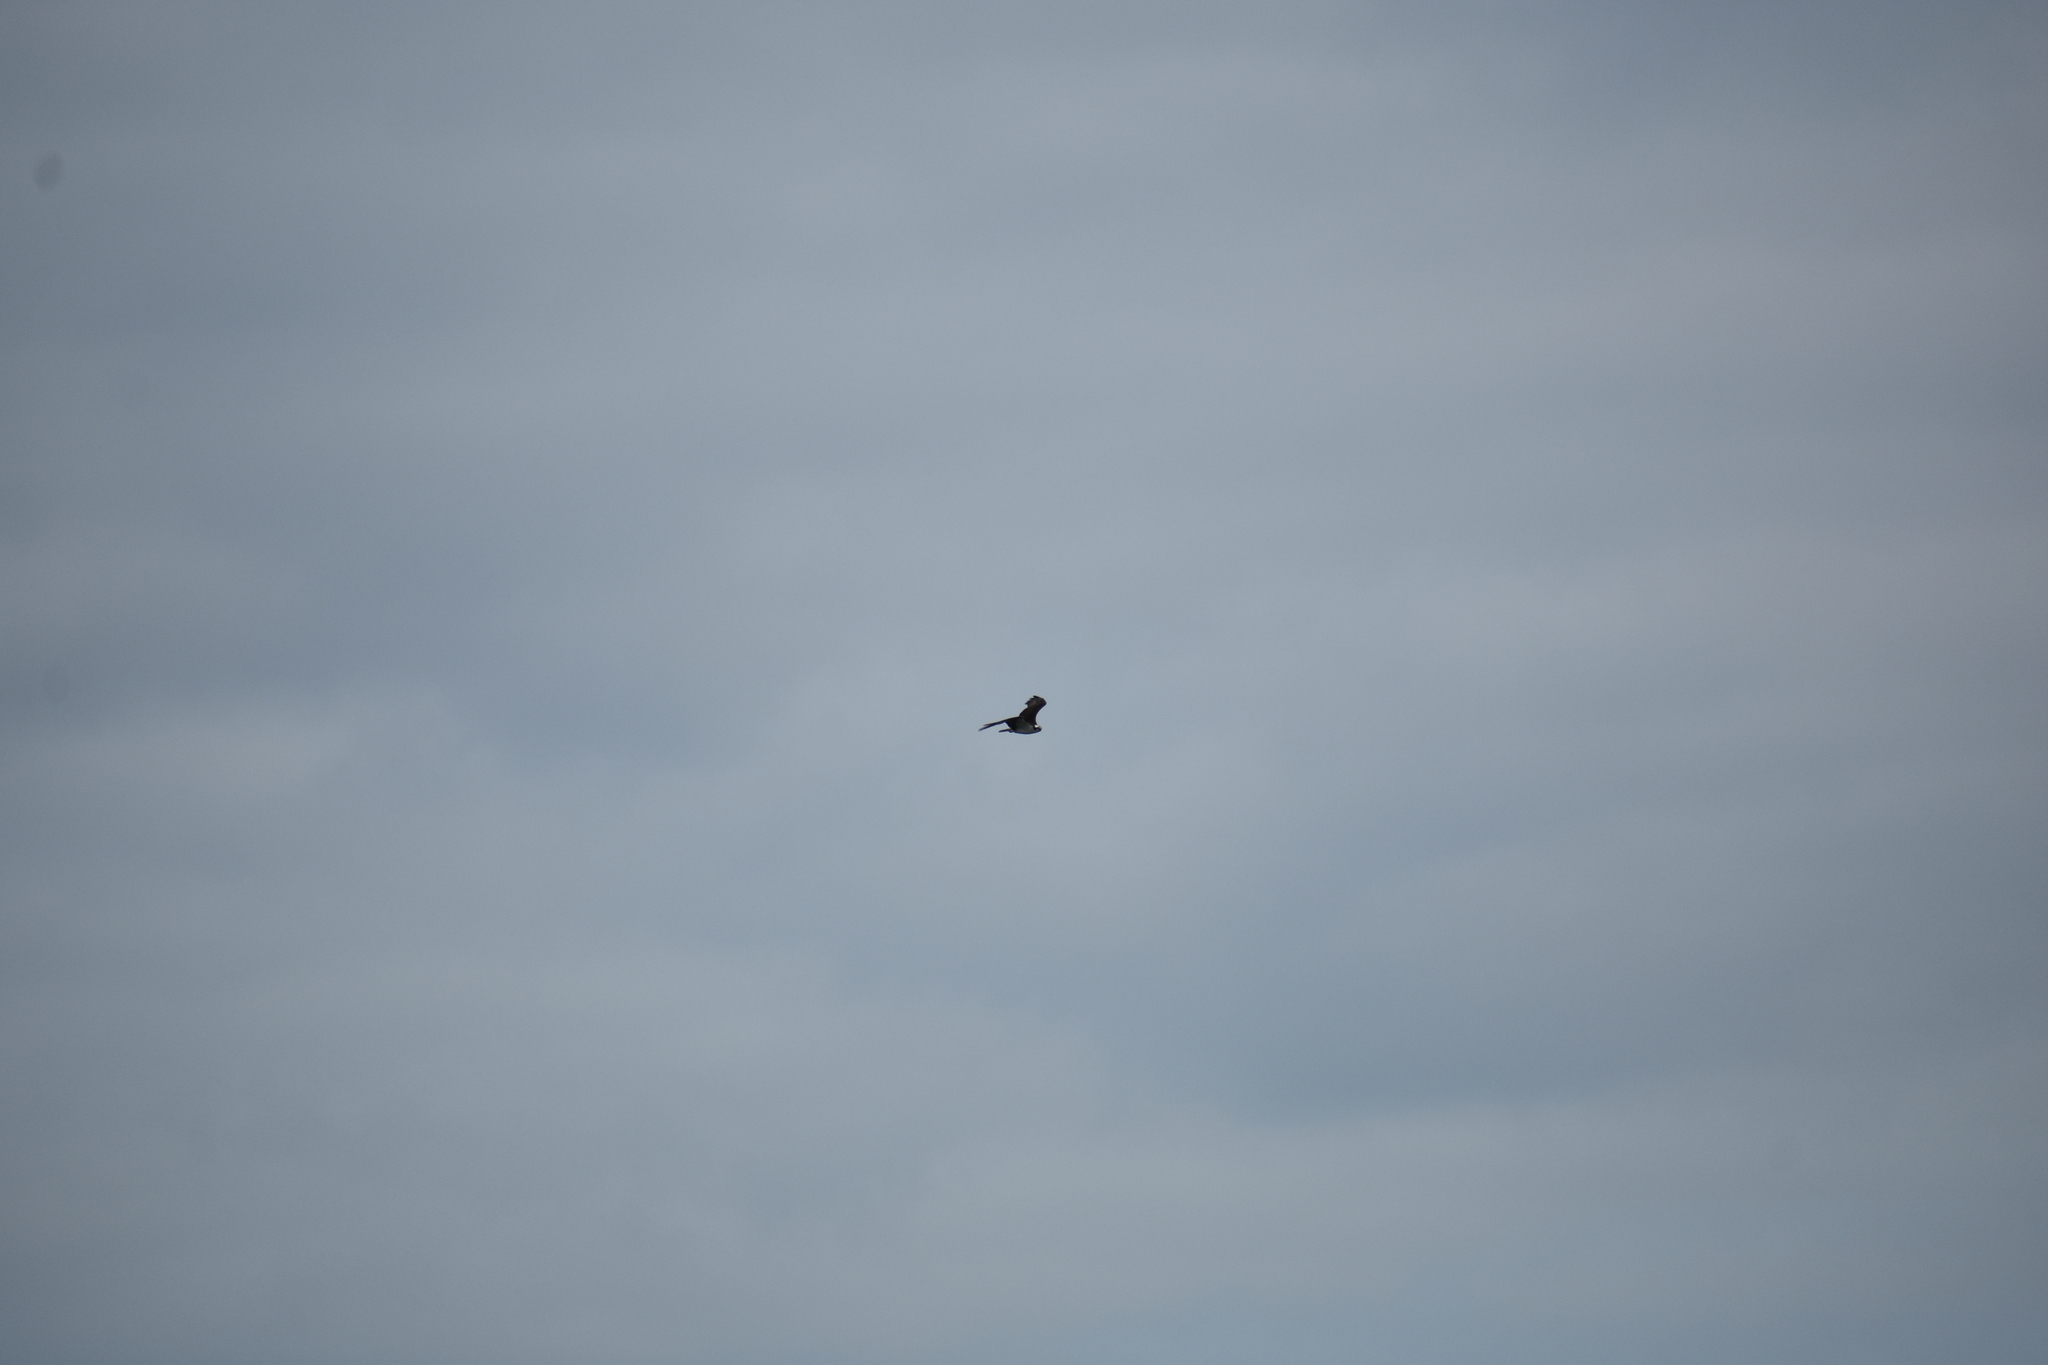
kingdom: Animalia
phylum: Chordata
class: Aves
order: Accipitriformes
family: Pandionidae
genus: Pandion
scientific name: Pandion haliaetus
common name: Osprey
